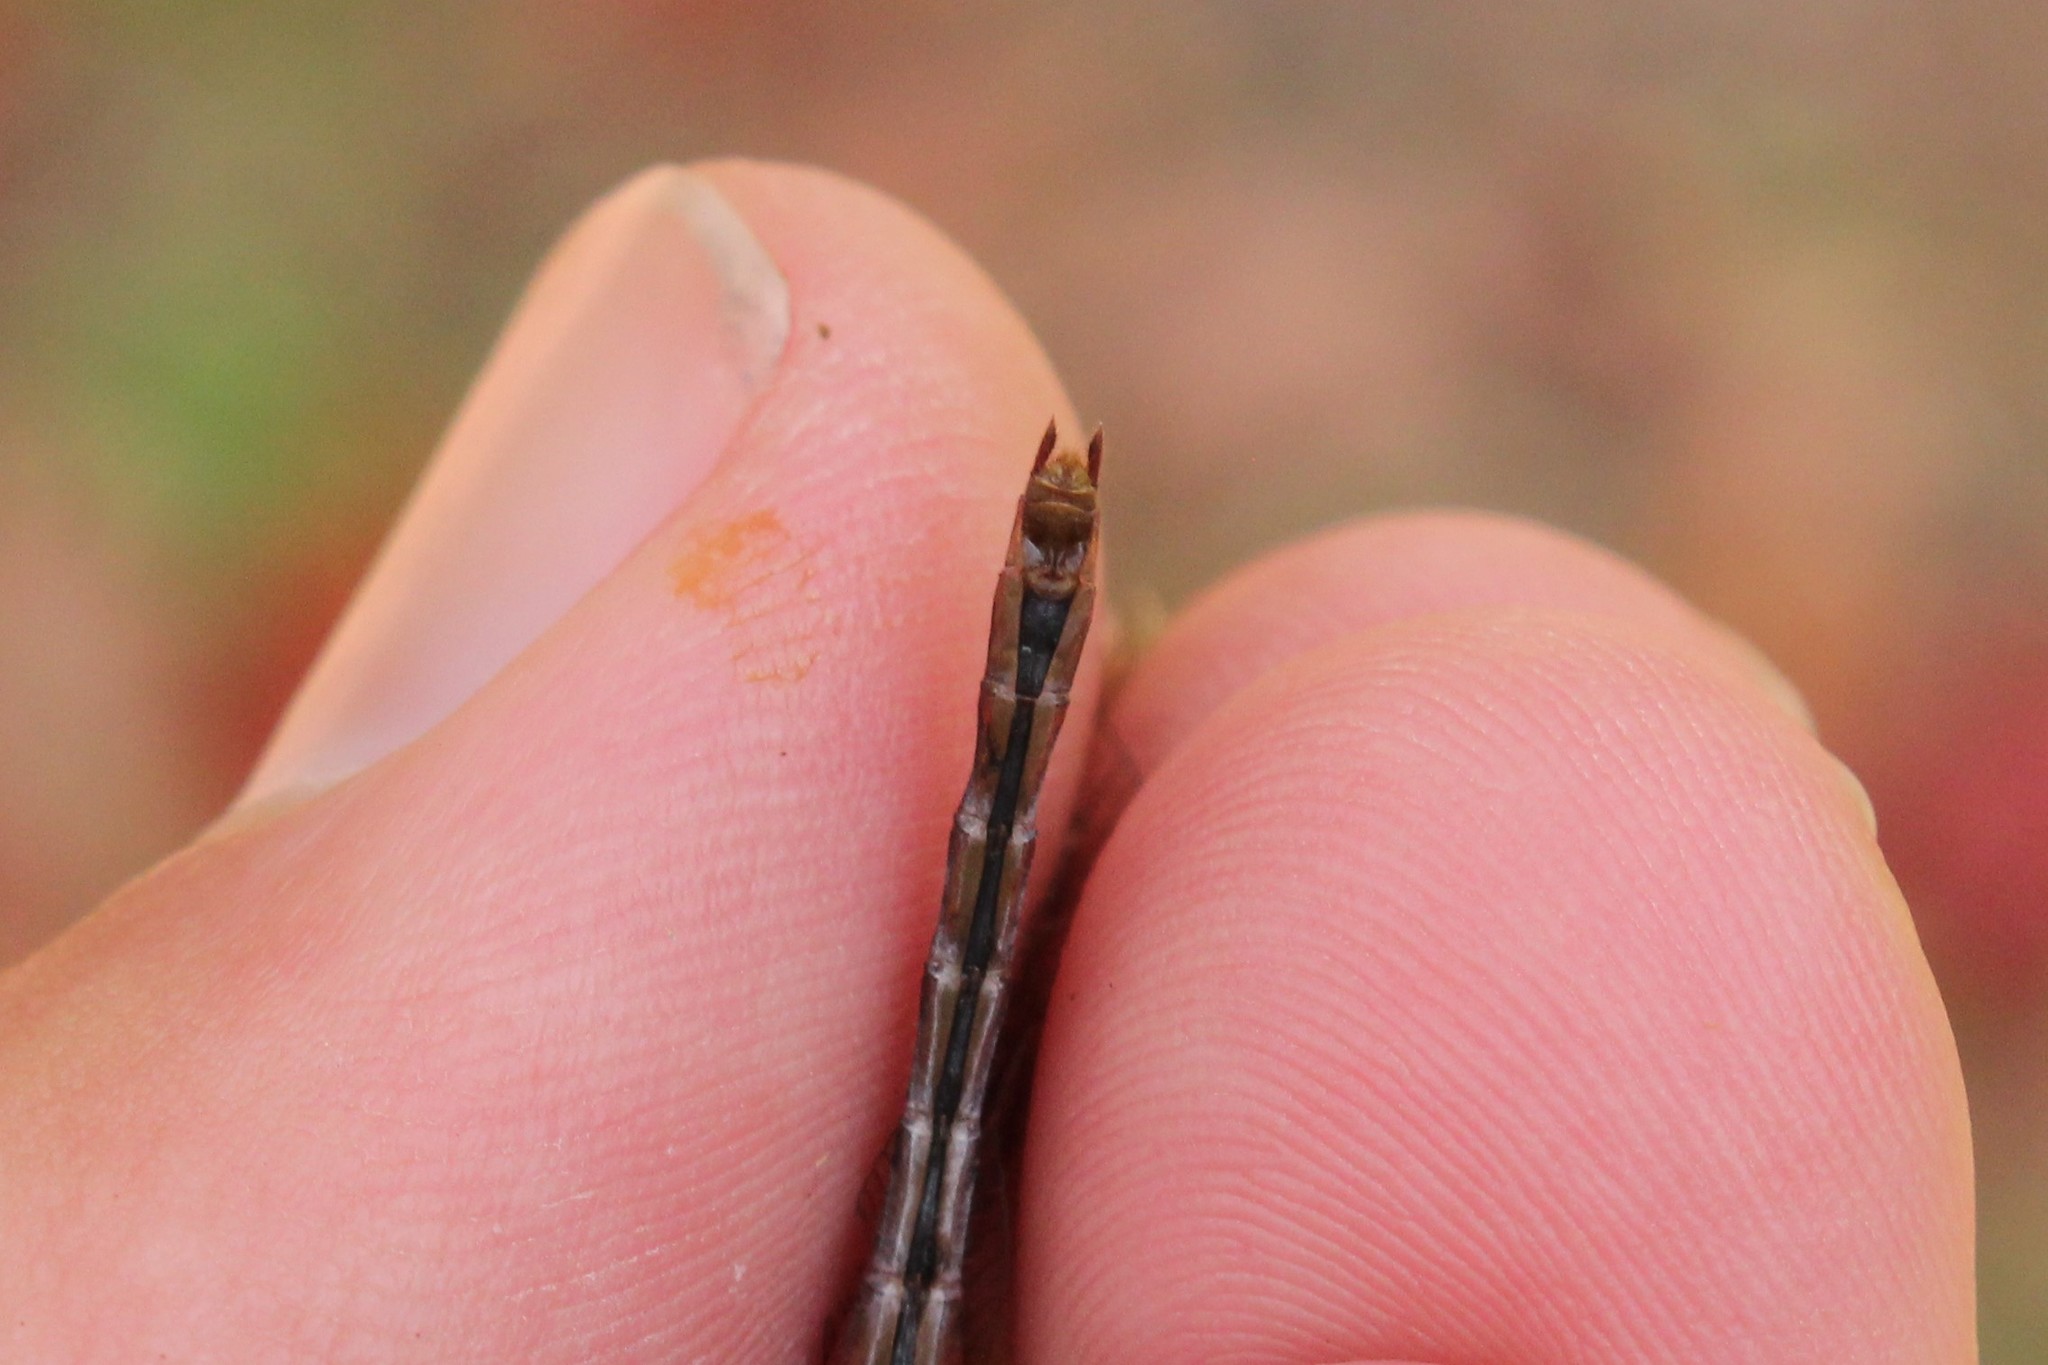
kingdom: Animalia
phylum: Arthropoda
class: Insecta
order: Odonata
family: Libellulidae
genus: Sympetrum
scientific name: Sympetrum internum
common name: Cherry-faced meadowhawk
